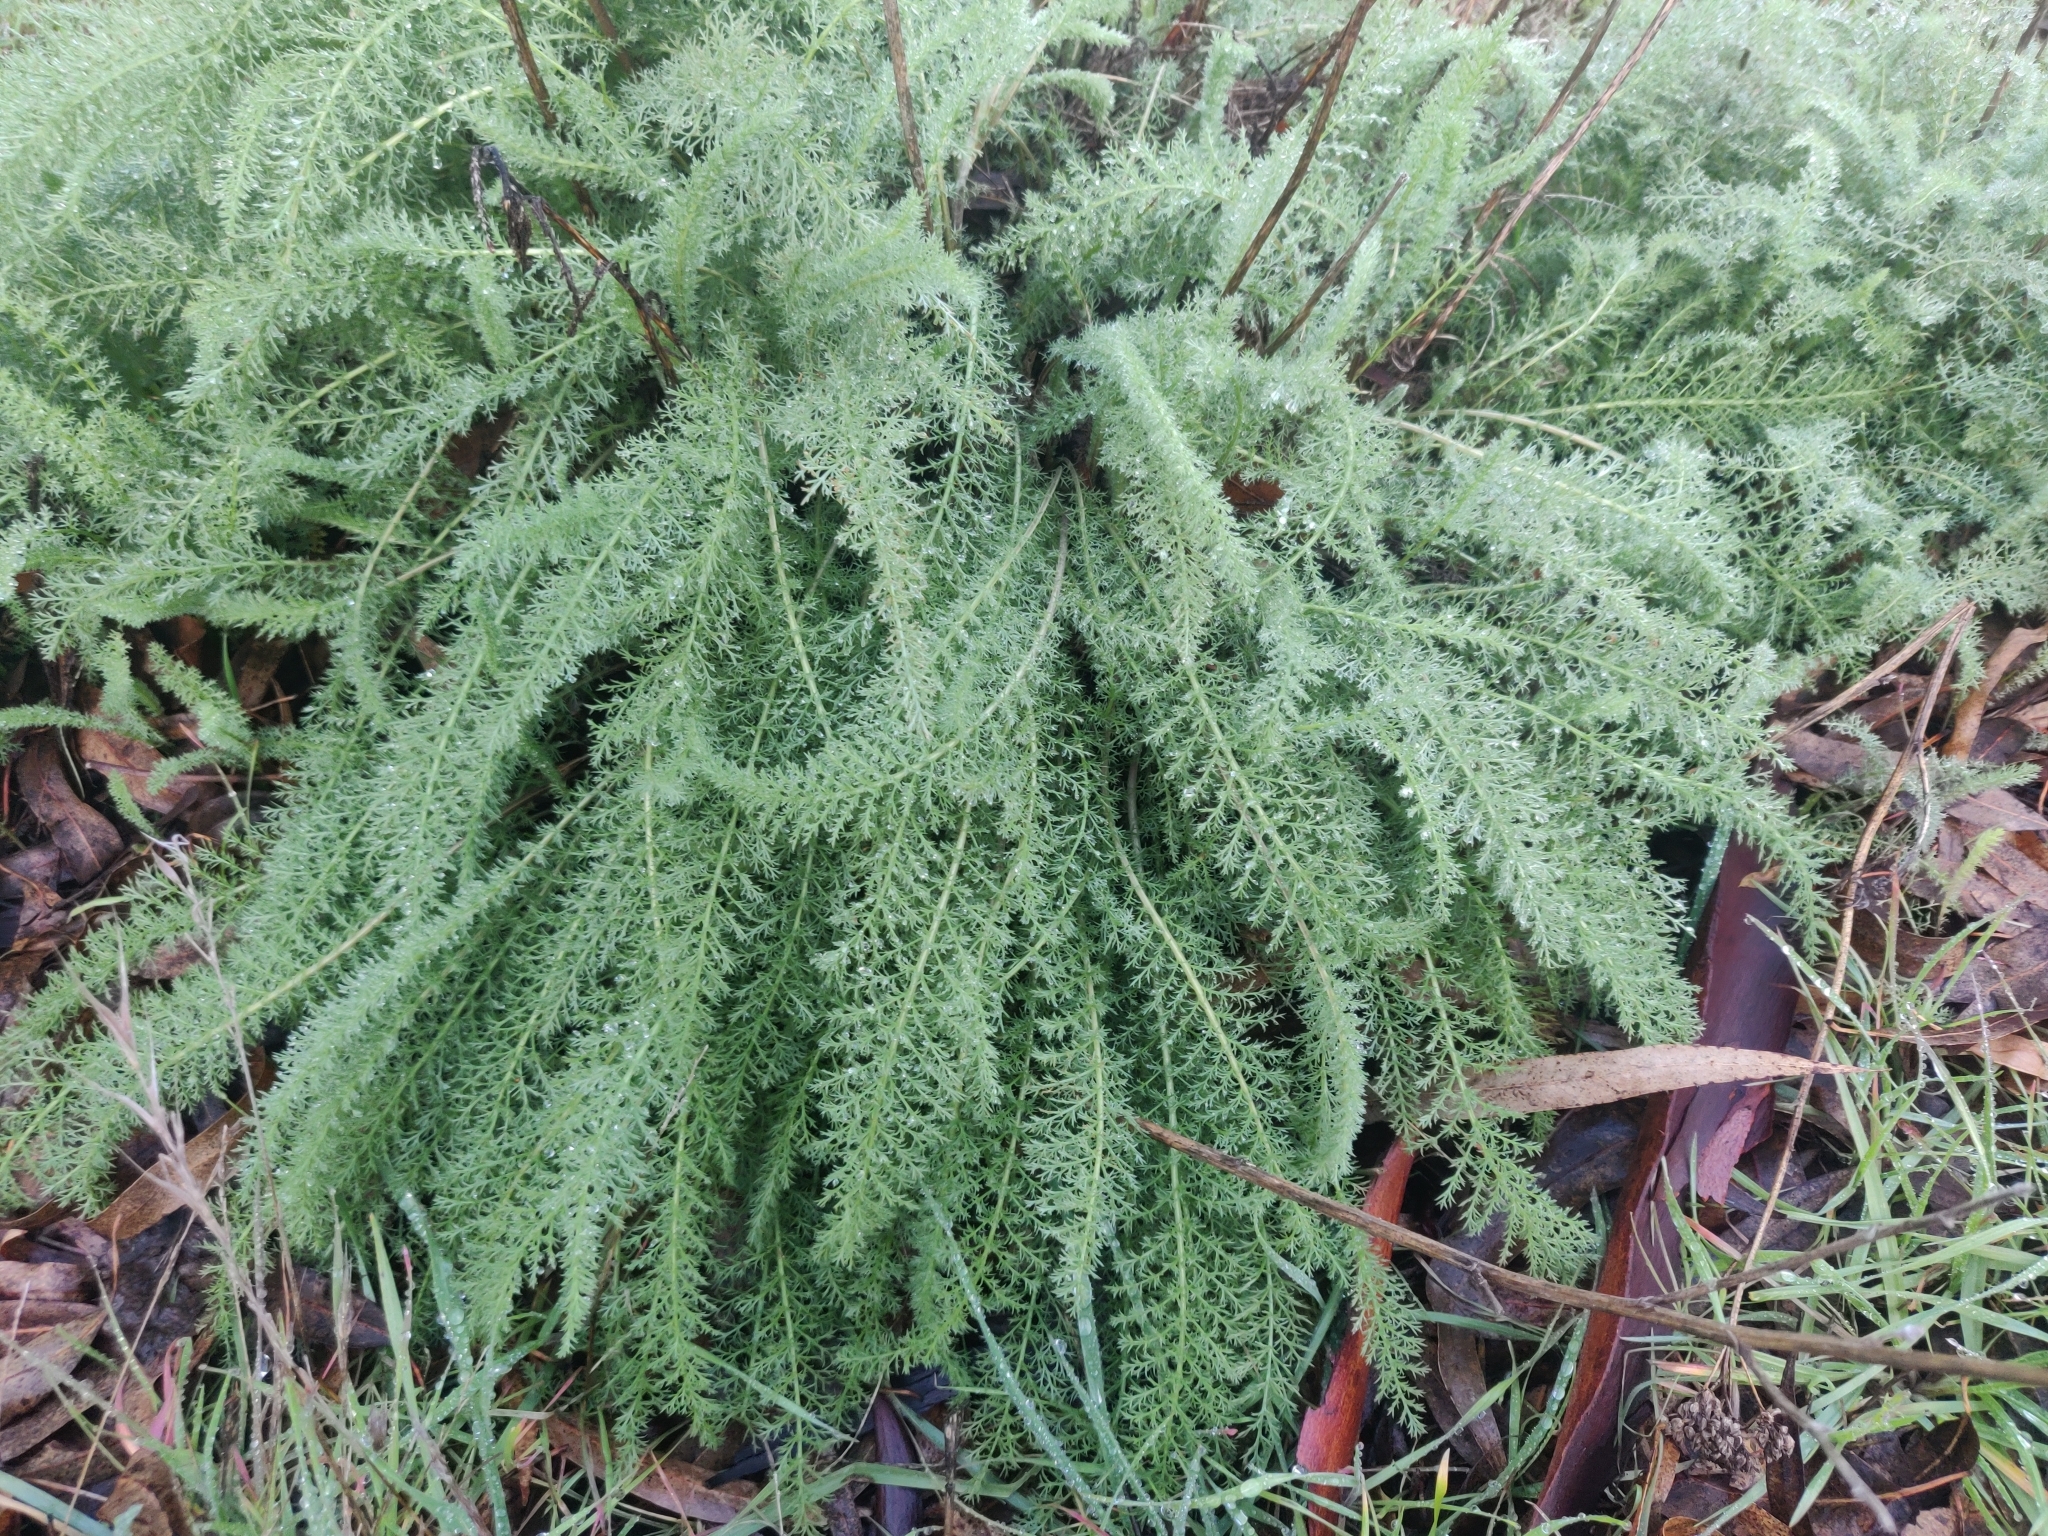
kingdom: Plantae
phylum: Tracheophyta
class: Magnoliopsida
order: Asterales
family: Asteraceae
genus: Achillea
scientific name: Achillea millefolium
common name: Yarrow
